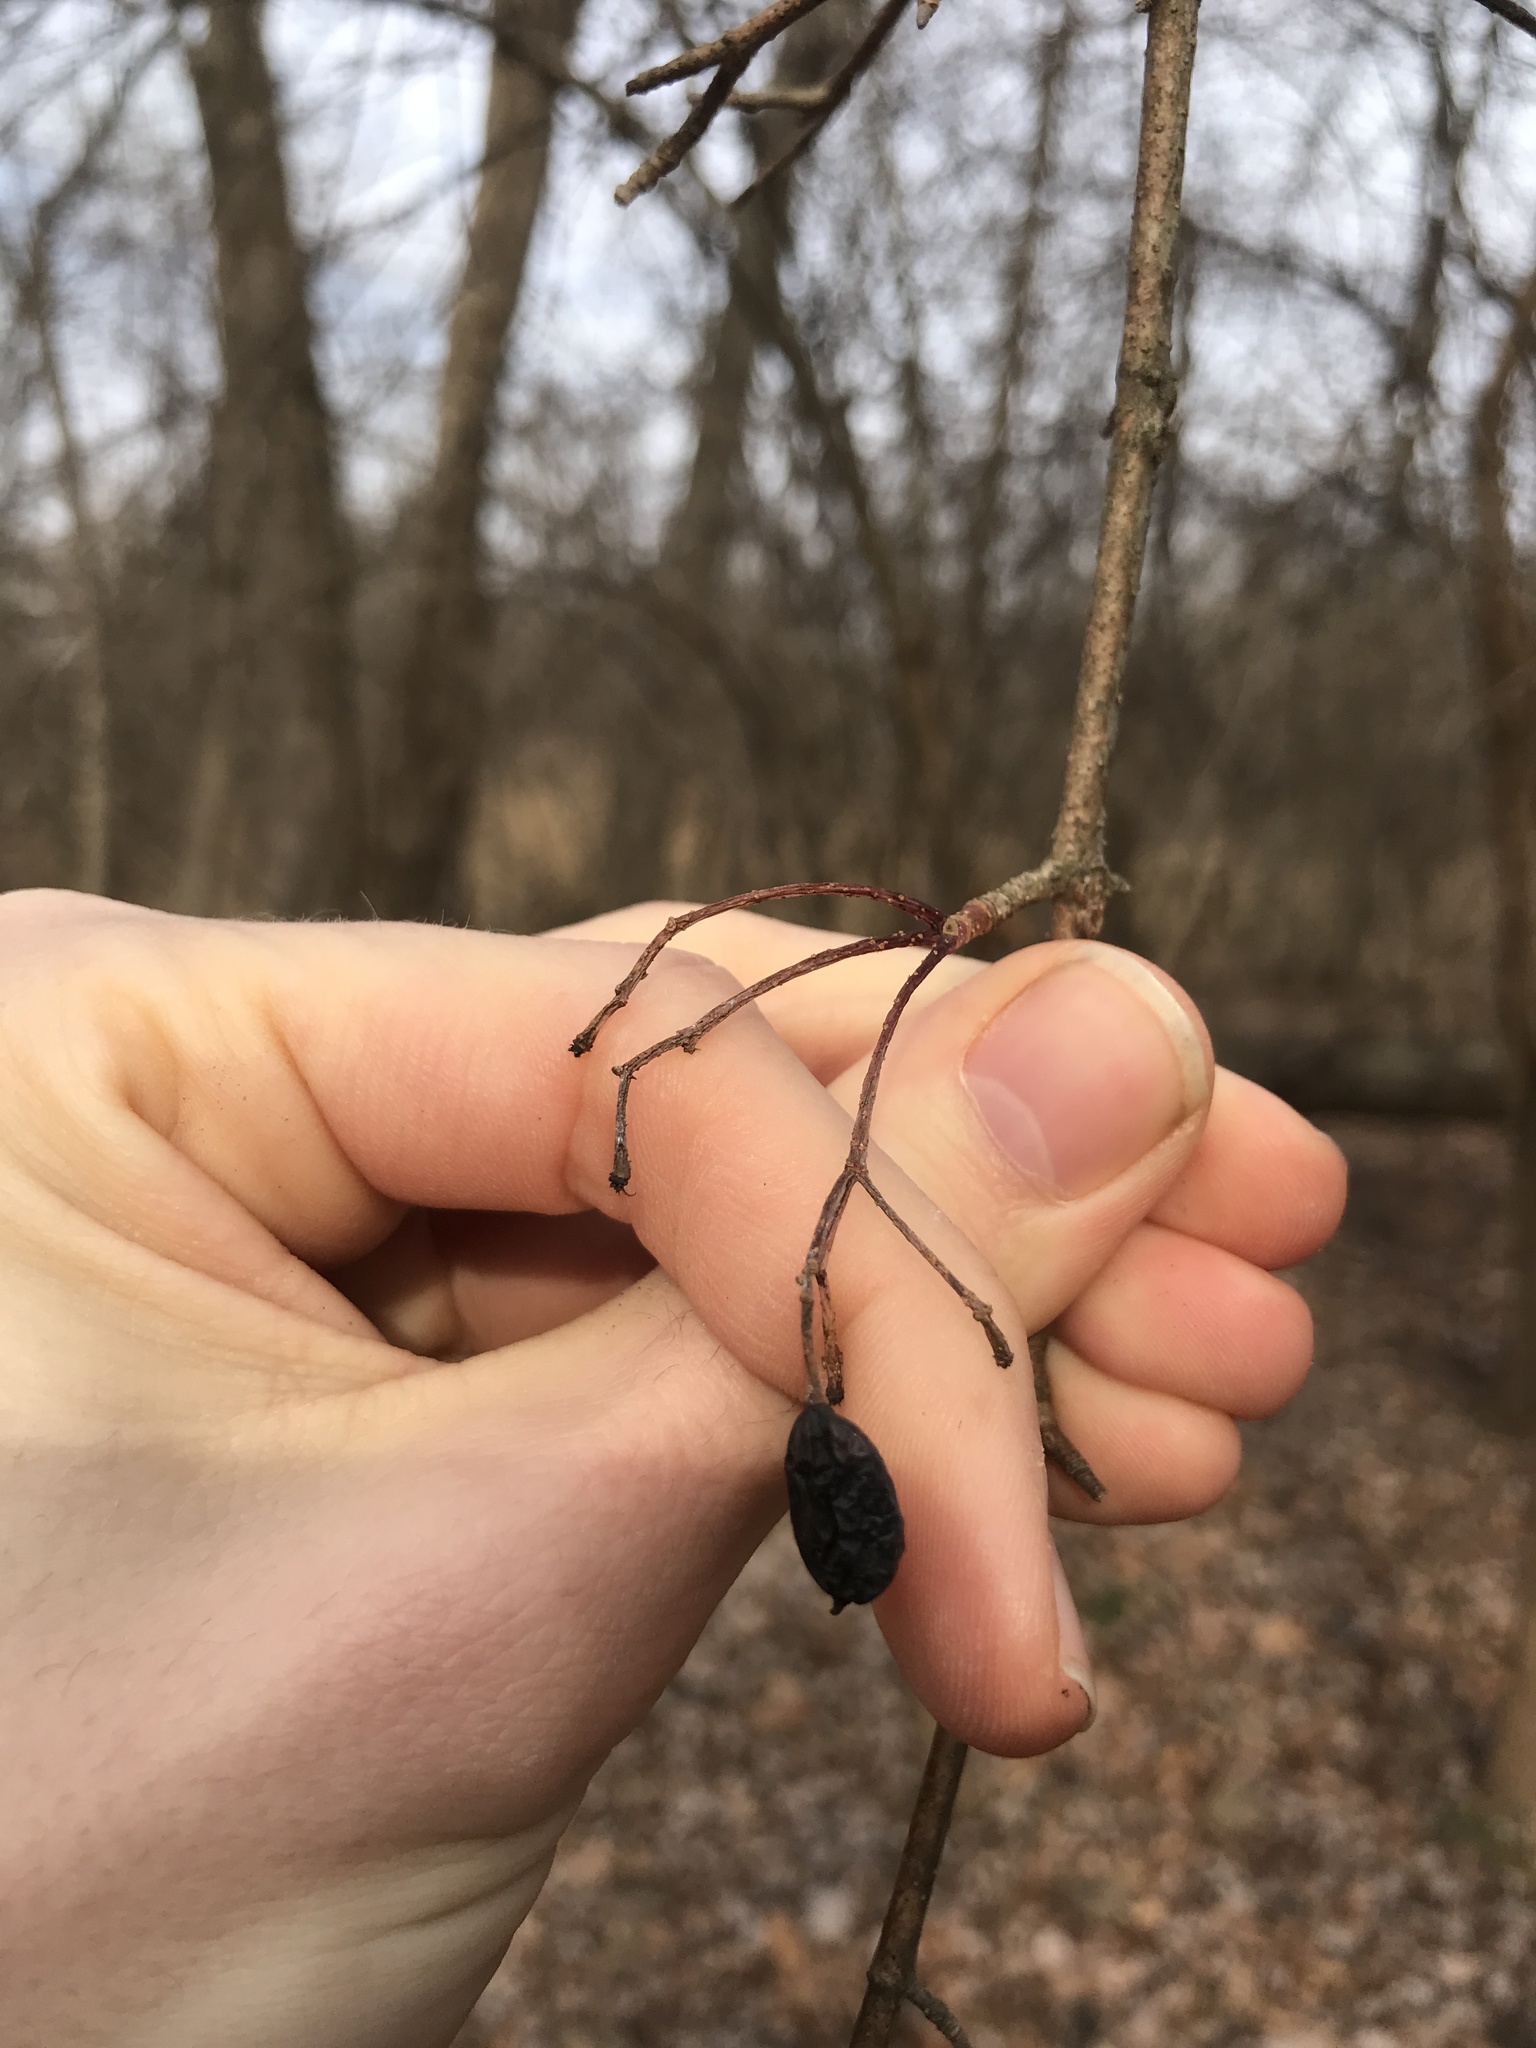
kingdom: Plantae
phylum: Tracheophyta
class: Magnoliopsida
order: Dipsacales
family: Viburnaceae
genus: Viburnum
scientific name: Viburnum prunifolium
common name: Black haw
